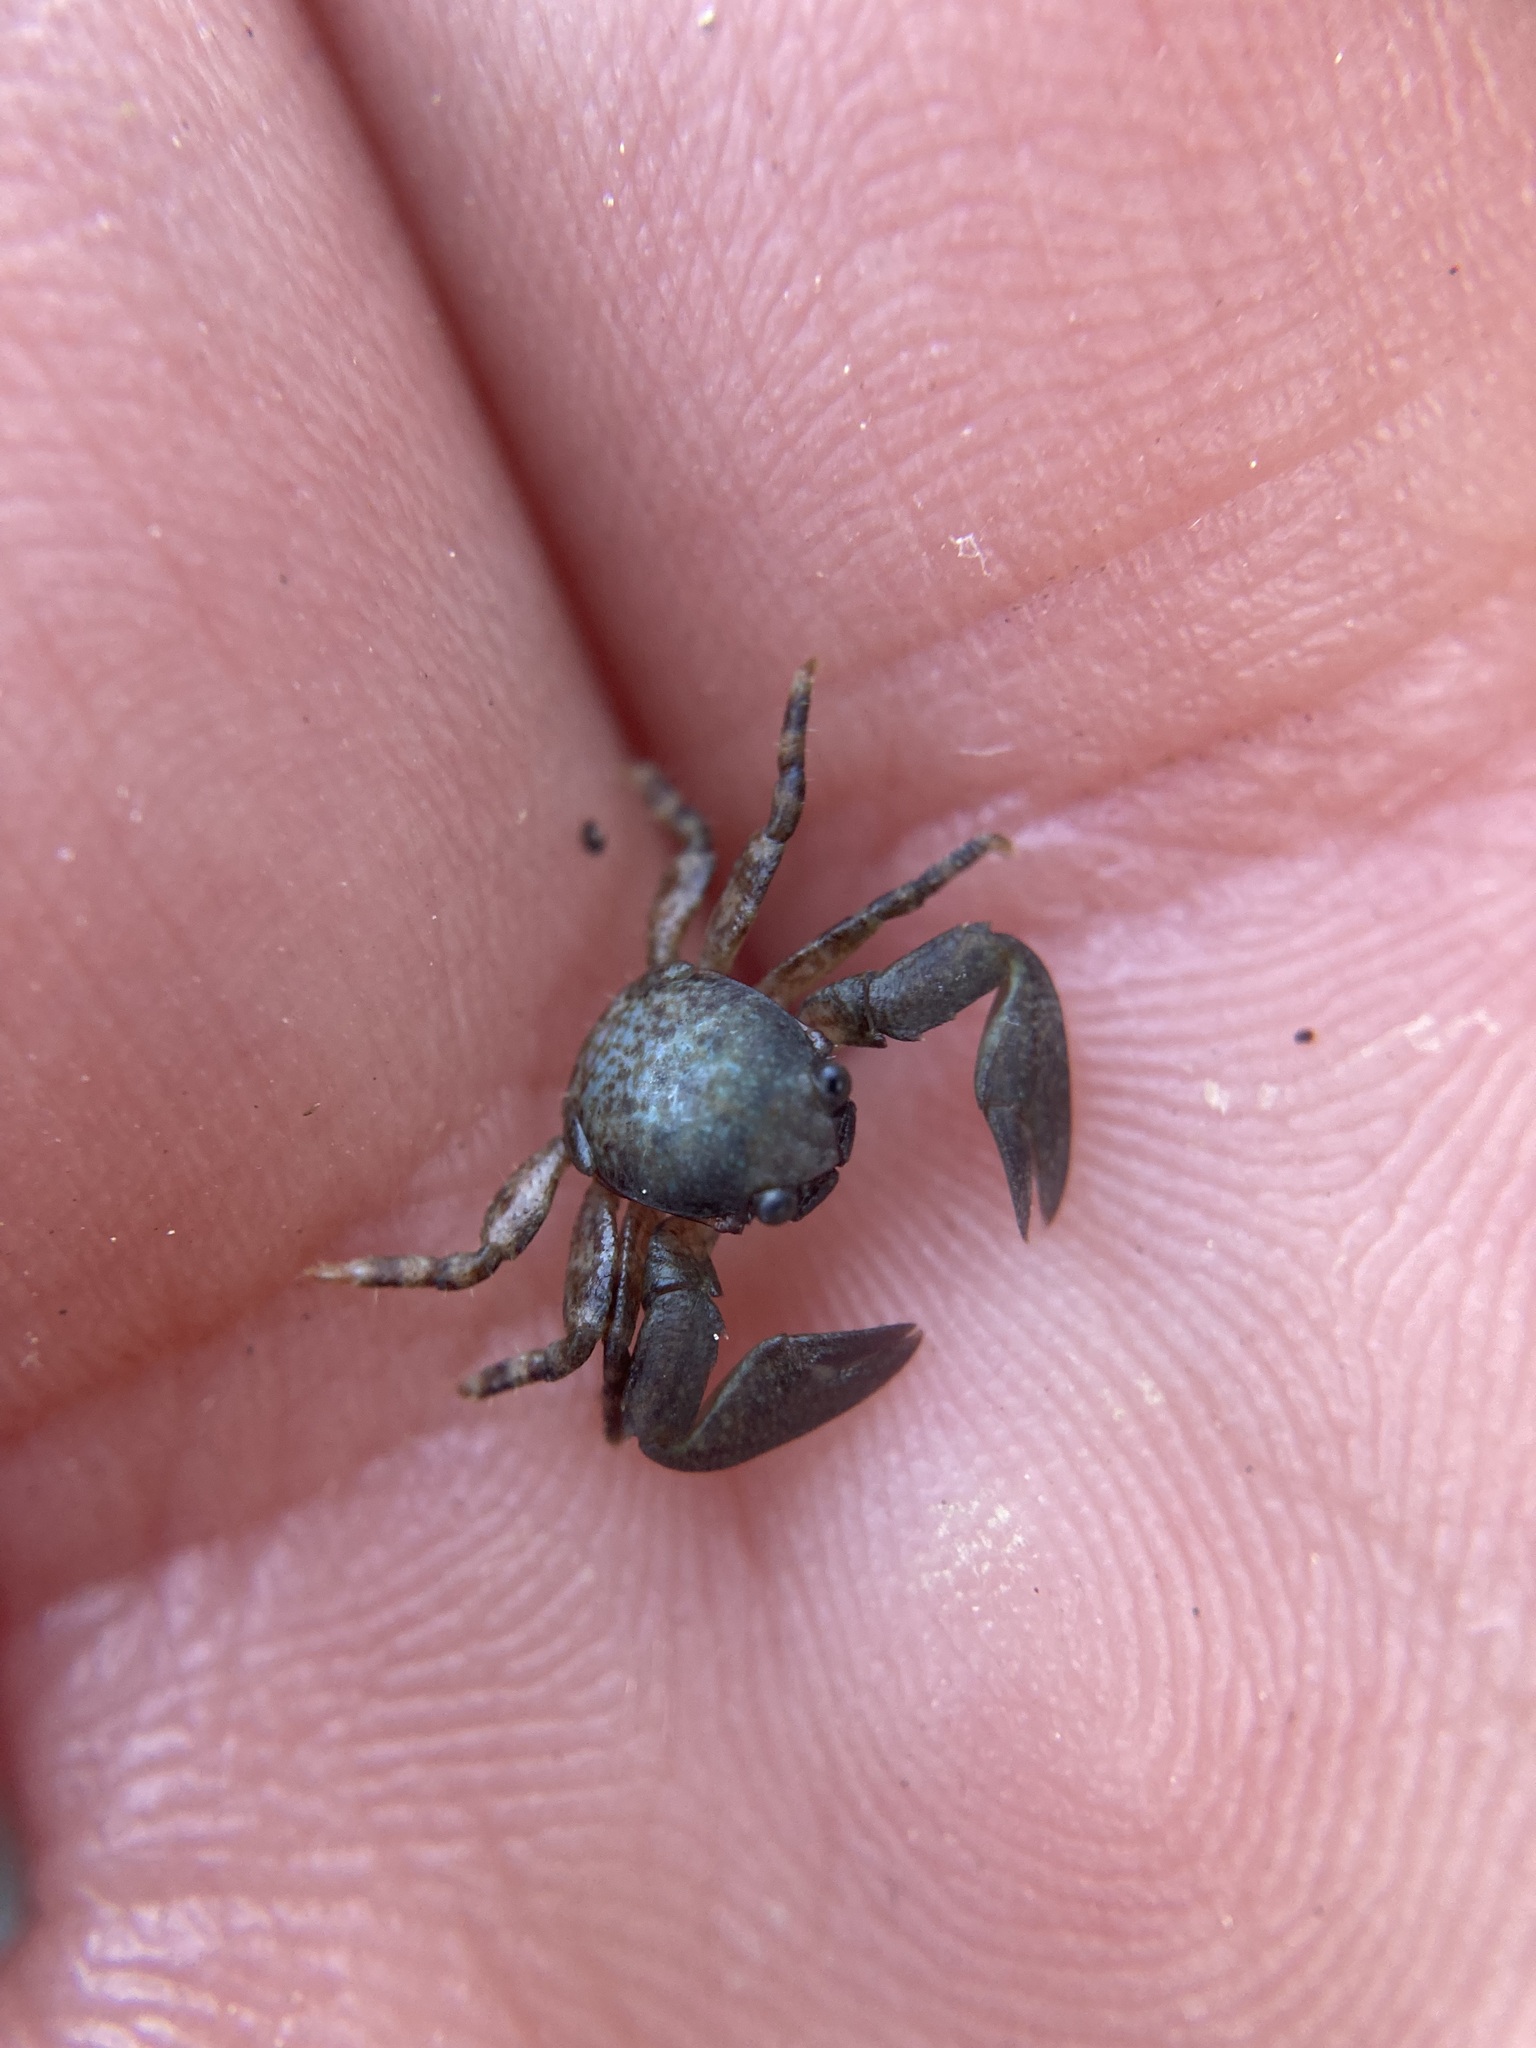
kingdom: Animalia
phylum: Arthropoda
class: Malacostraca
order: Decapoda
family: Porcellanidae
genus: Petrolisthes
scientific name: Petrolisthes elongatus
